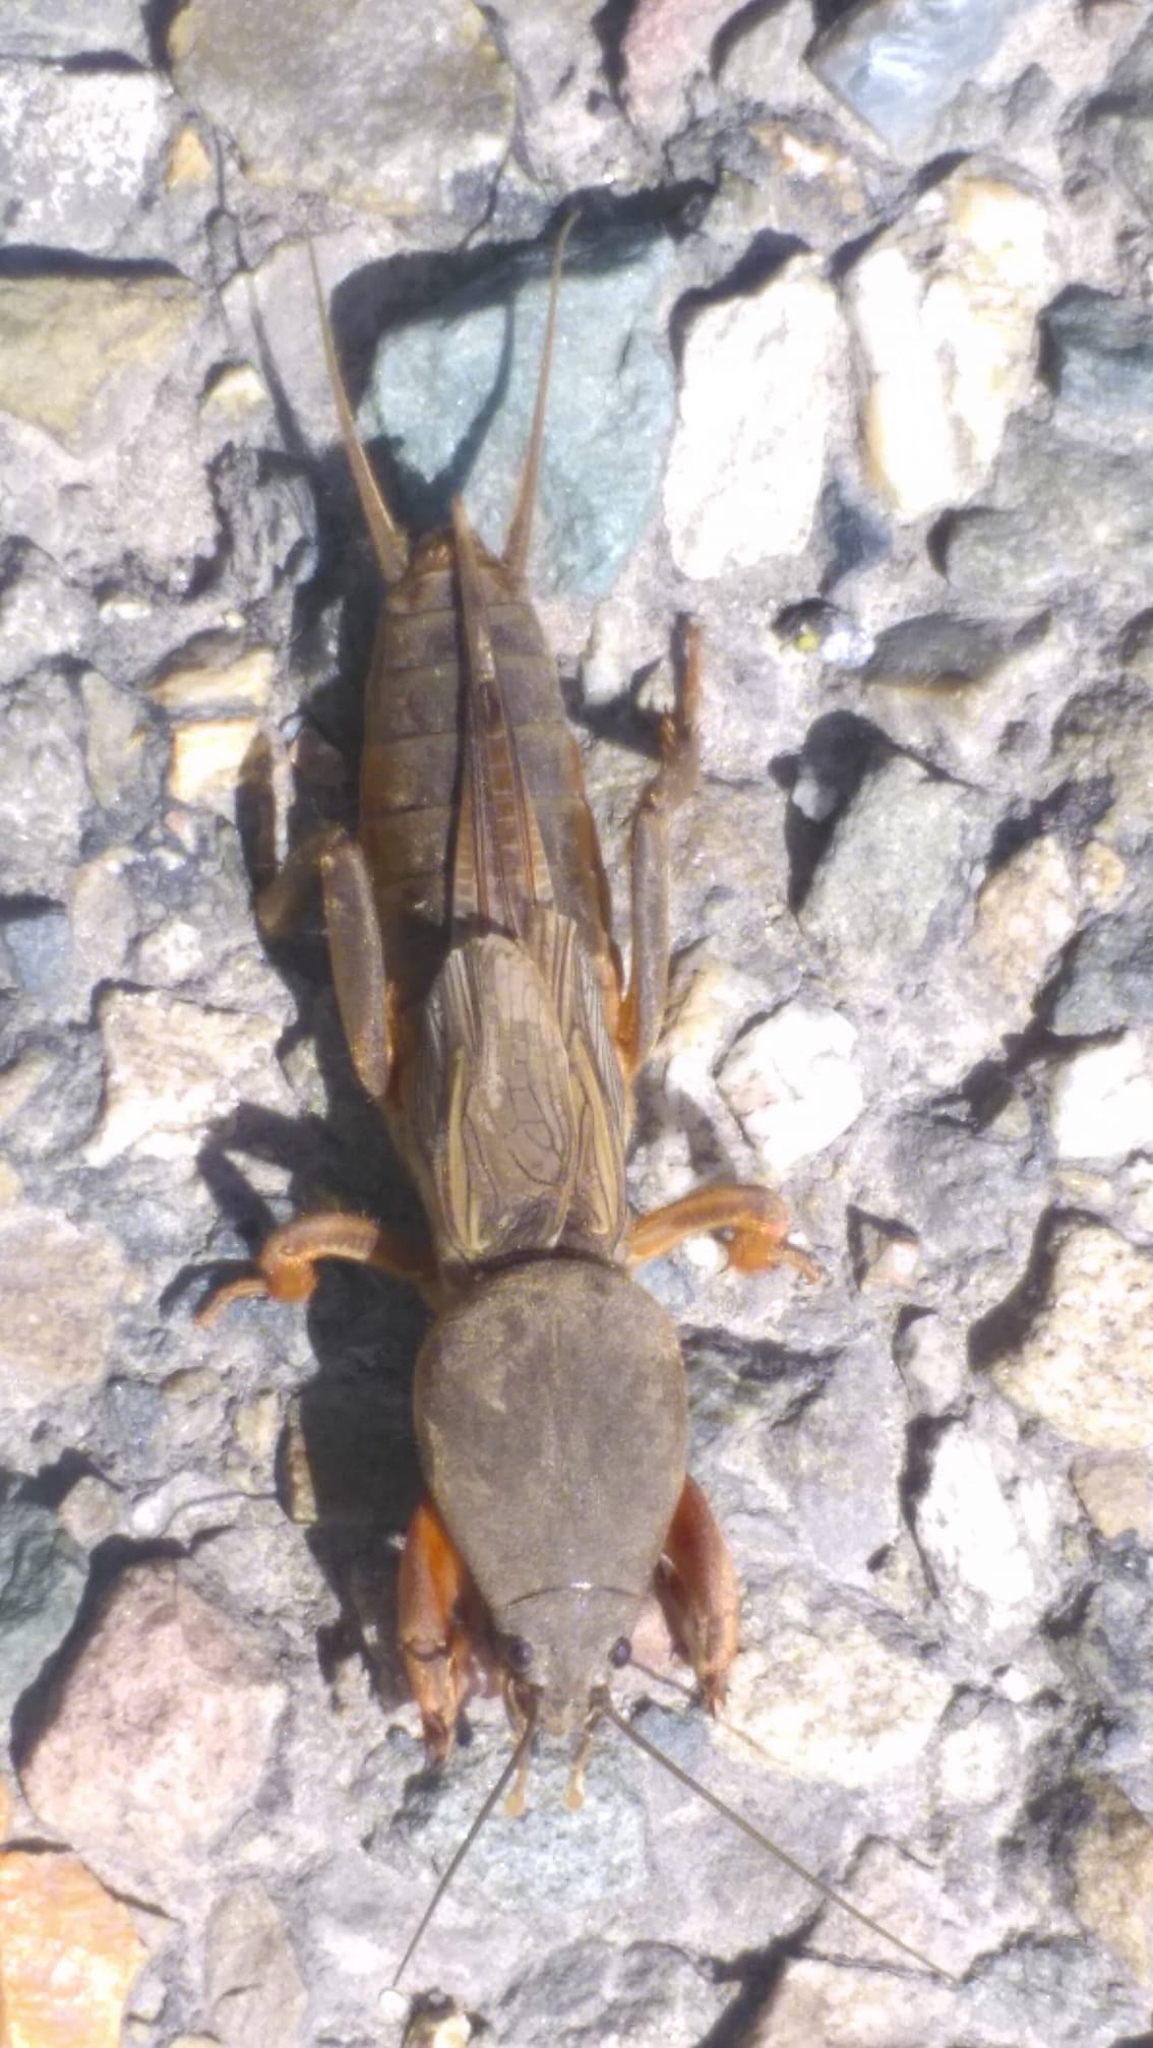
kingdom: Animalia
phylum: Arthropoda
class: Insecta
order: Orthoptera
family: Gryllotalpidae
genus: Gryllotalpa
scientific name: Gryllotalpa gryllotalpa
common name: European mole cricket
